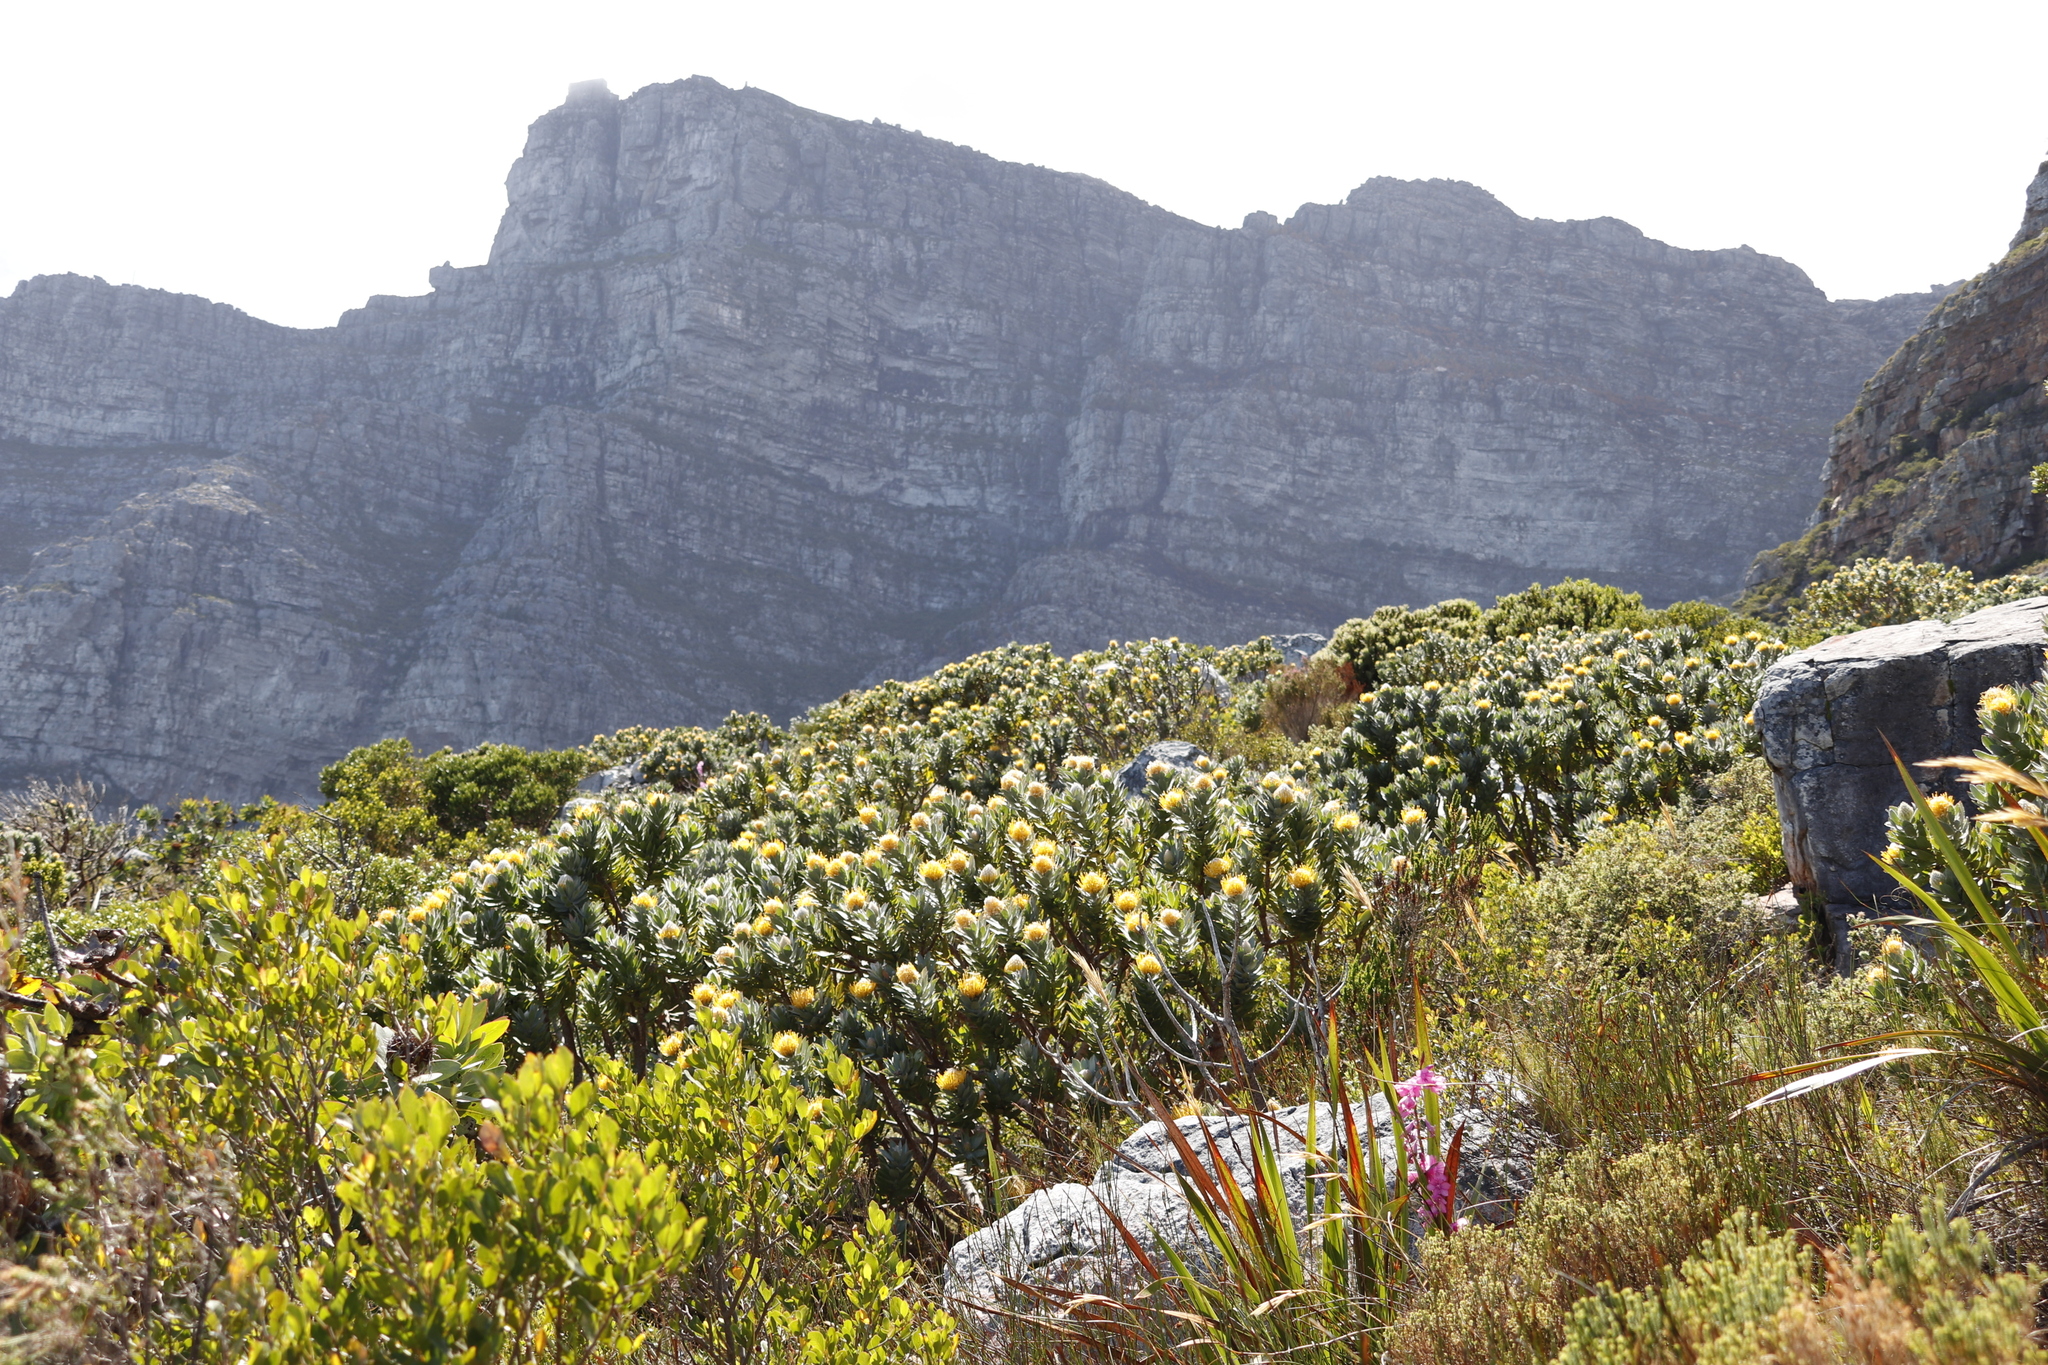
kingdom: Plantae
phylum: Tracheophyta
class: Magnoliopsida
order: Proteales
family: Proteaceae
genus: Leucospermum
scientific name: Leucospermum conocarpodendron
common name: Tree pincushion
